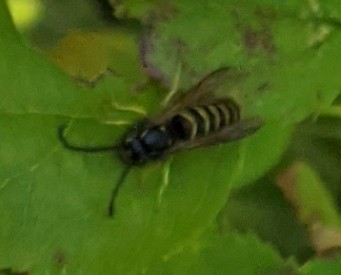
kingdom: Animalia
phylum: Arthropoda
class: Insecta
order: Hymenoptera
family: Vespidae
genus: Vespula
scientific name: Vespula
